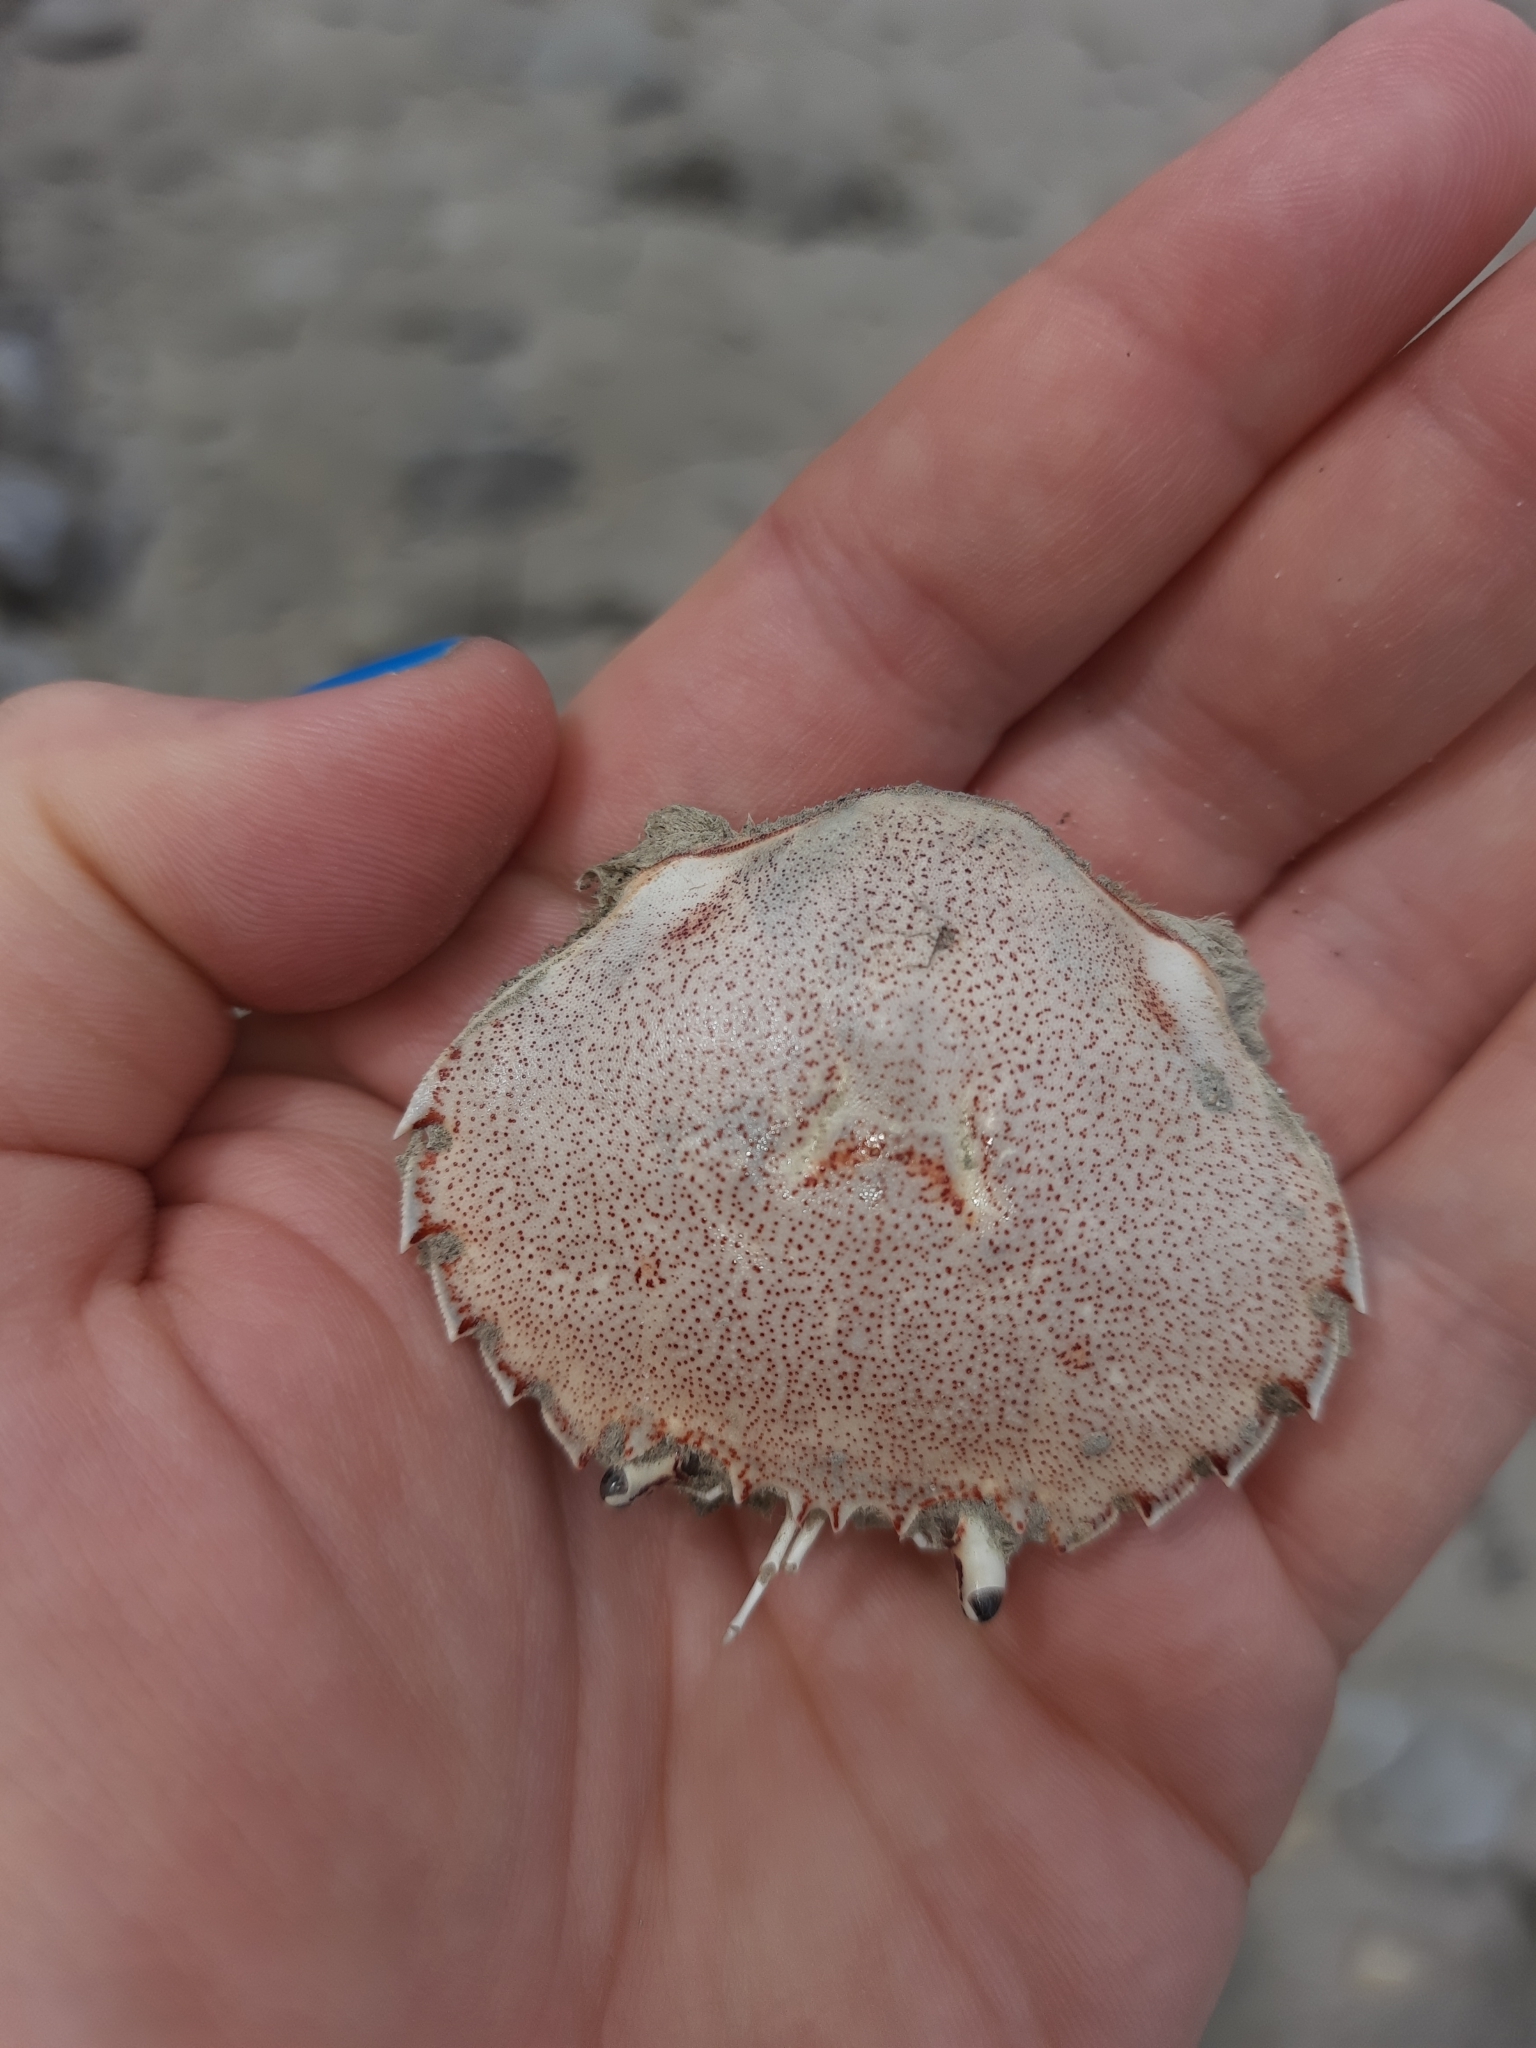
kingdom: Animalia
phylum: Arthropoda
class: Malacostraca
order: Decapoda
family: Ovalipidae
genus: Ovalipes
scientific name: Ovalipes catharus
